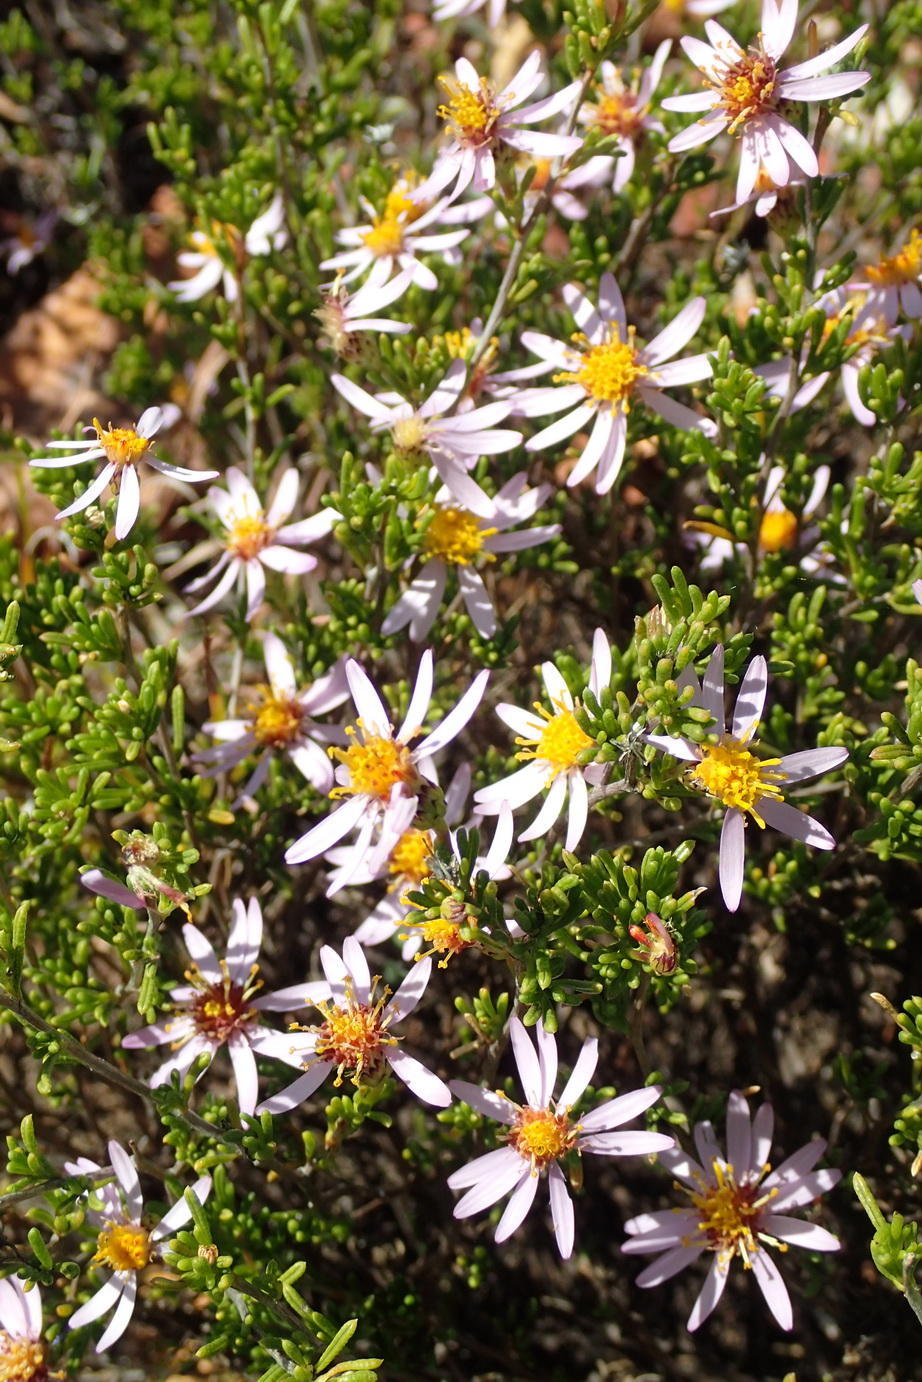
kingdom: Plantae
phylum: Tracheophyta
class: Magnoliopsida
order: Asterales
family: Asteraceae
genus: Felicia
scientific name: Felicia filifolia
